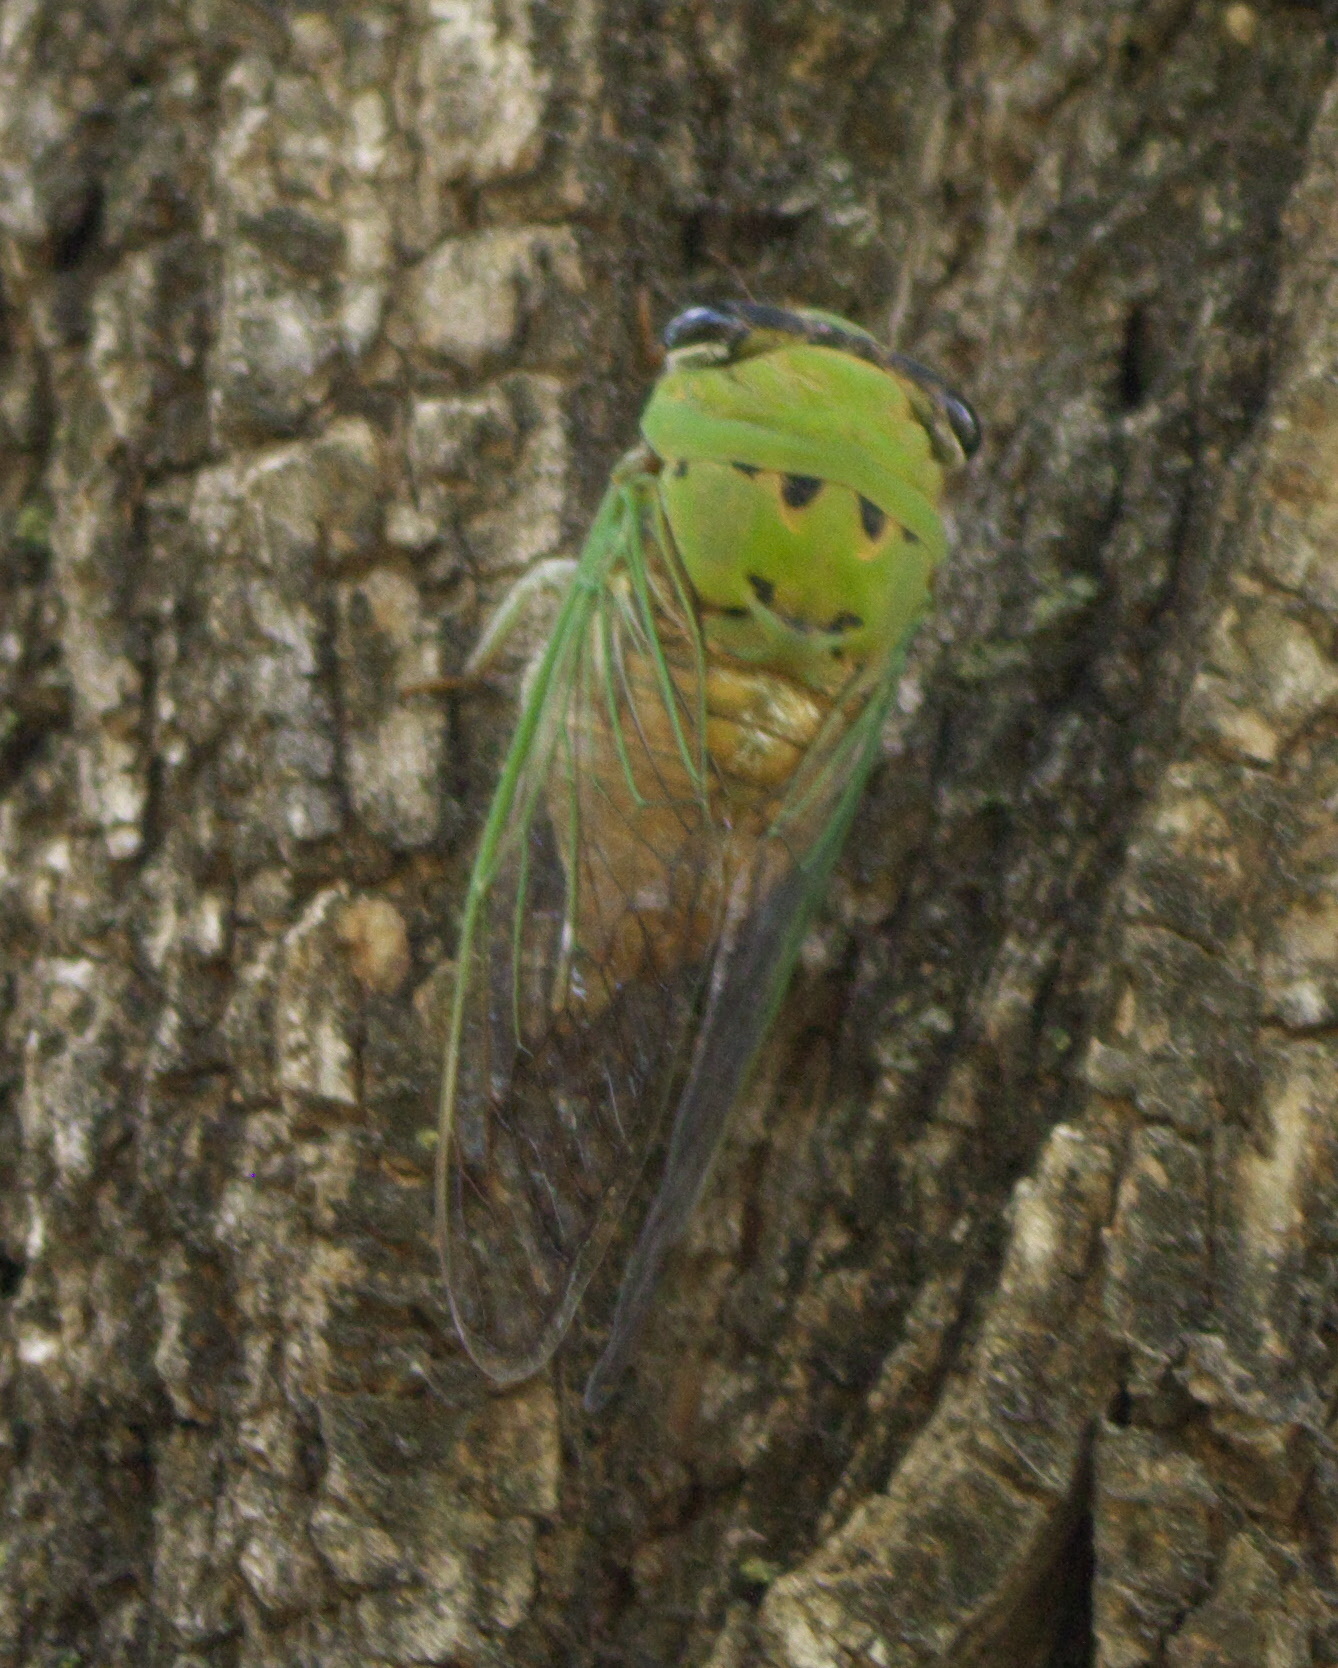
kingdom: Animalia
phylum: Arthropoda
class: Insecta
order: Hemiptera
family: Cicadidae
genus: Neotibicen
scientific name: Neotibicen superbus
